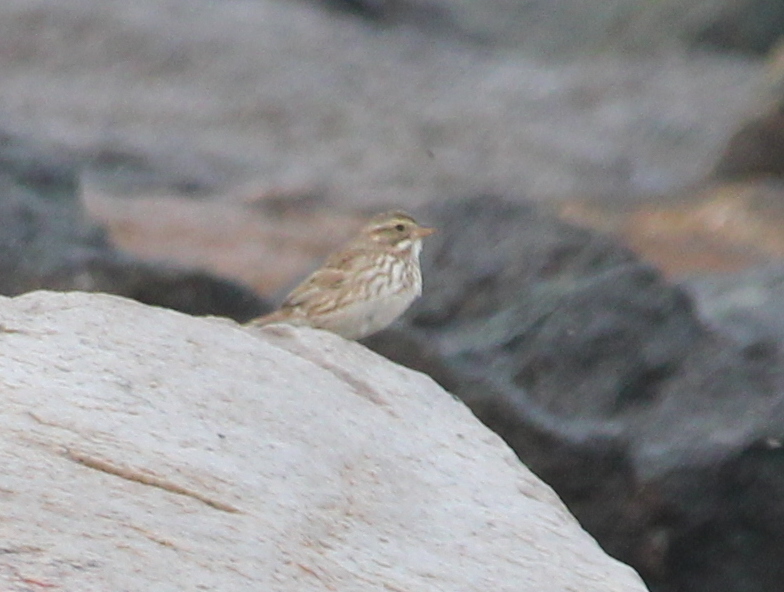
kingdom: Animalia
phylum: Chordata
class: Aves
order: Passeriformes
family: Passerellidae
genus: Passerculus
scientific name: Passerculus sandwichensis
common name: Savannah sparrow
